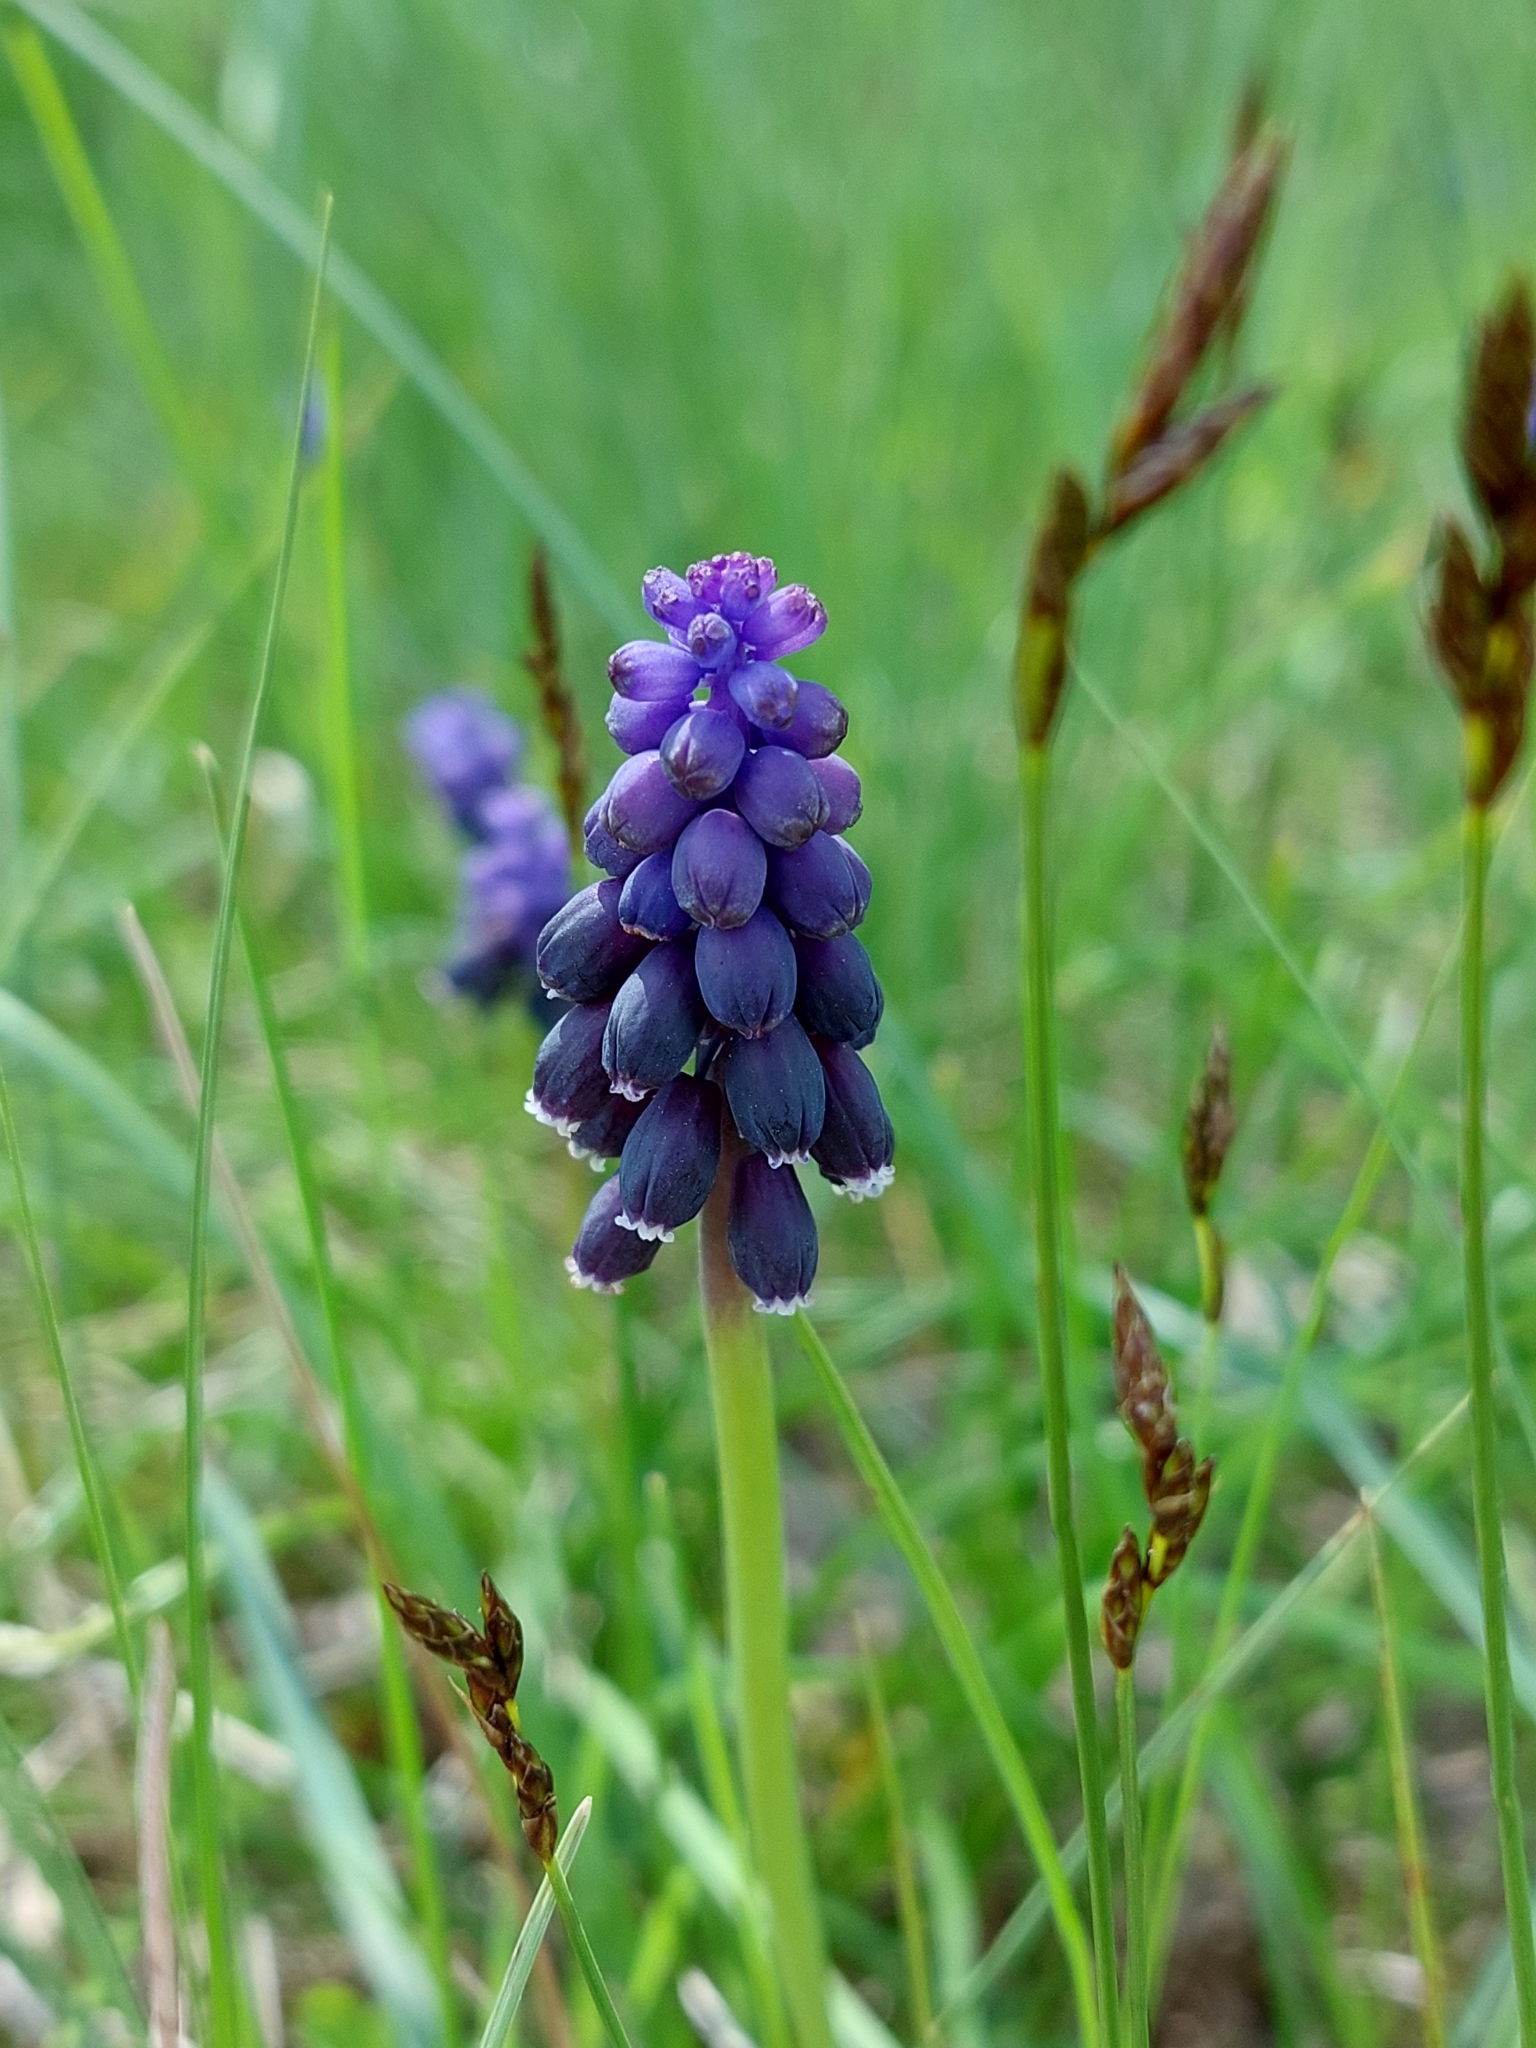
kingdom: Plantae
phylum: Tracheophyta
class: Liliopsida
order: Asparagales
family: Asparagaceae
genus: Muscari
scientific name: Muscari neglectum
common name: Grape-hyacinth
